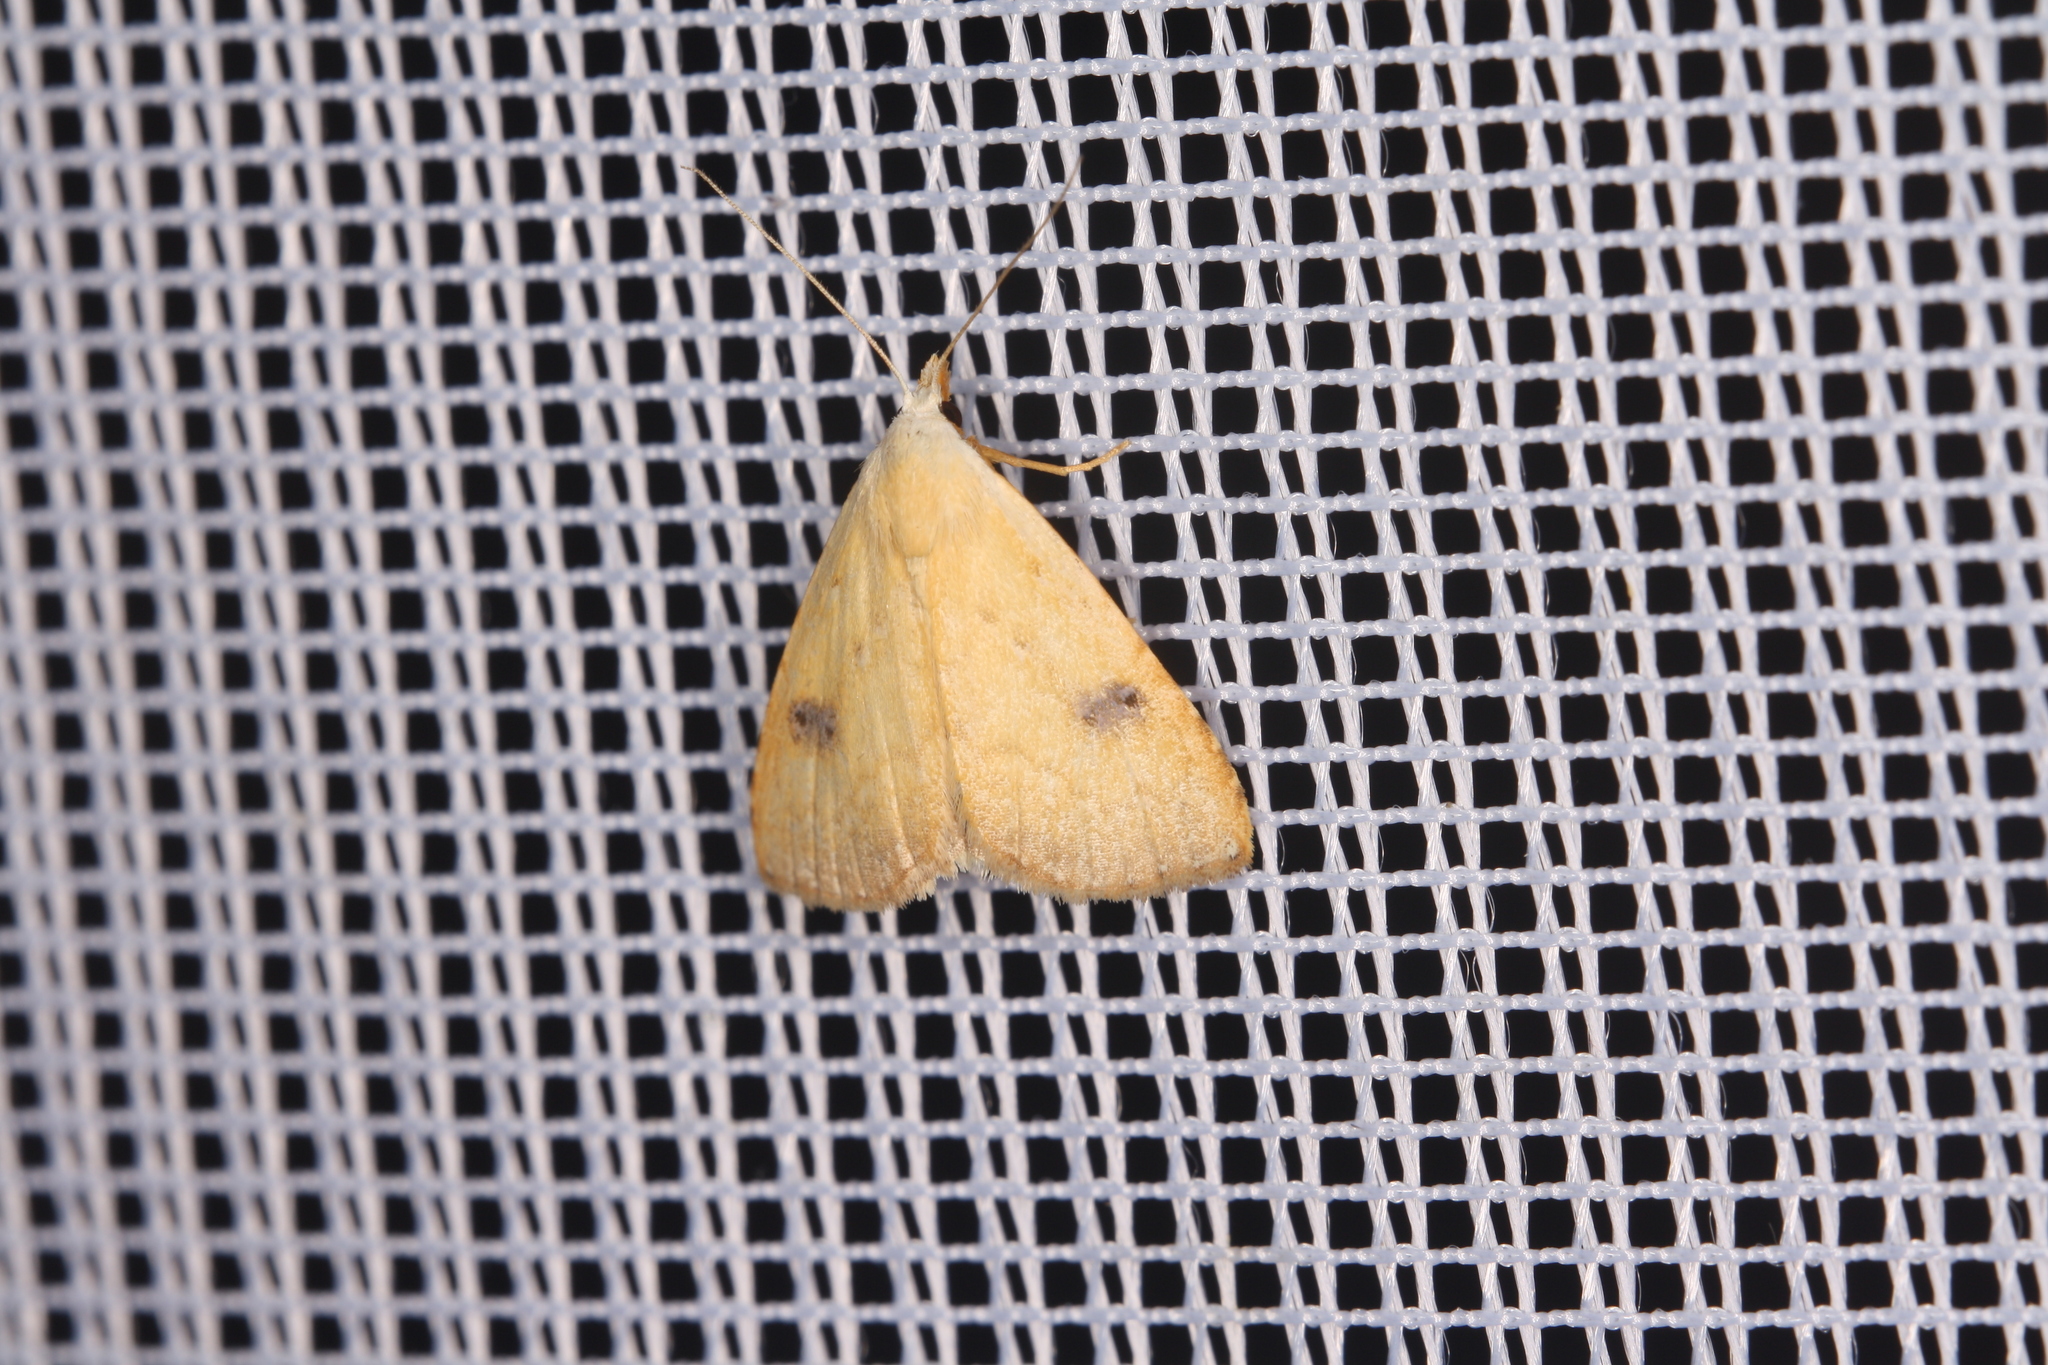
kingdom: Animalia
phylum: Arthropoda
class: Insecta
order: Lepidoptera
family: Erebidae
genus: Rivula
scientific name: Rivula sericealis
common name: Straw dot
